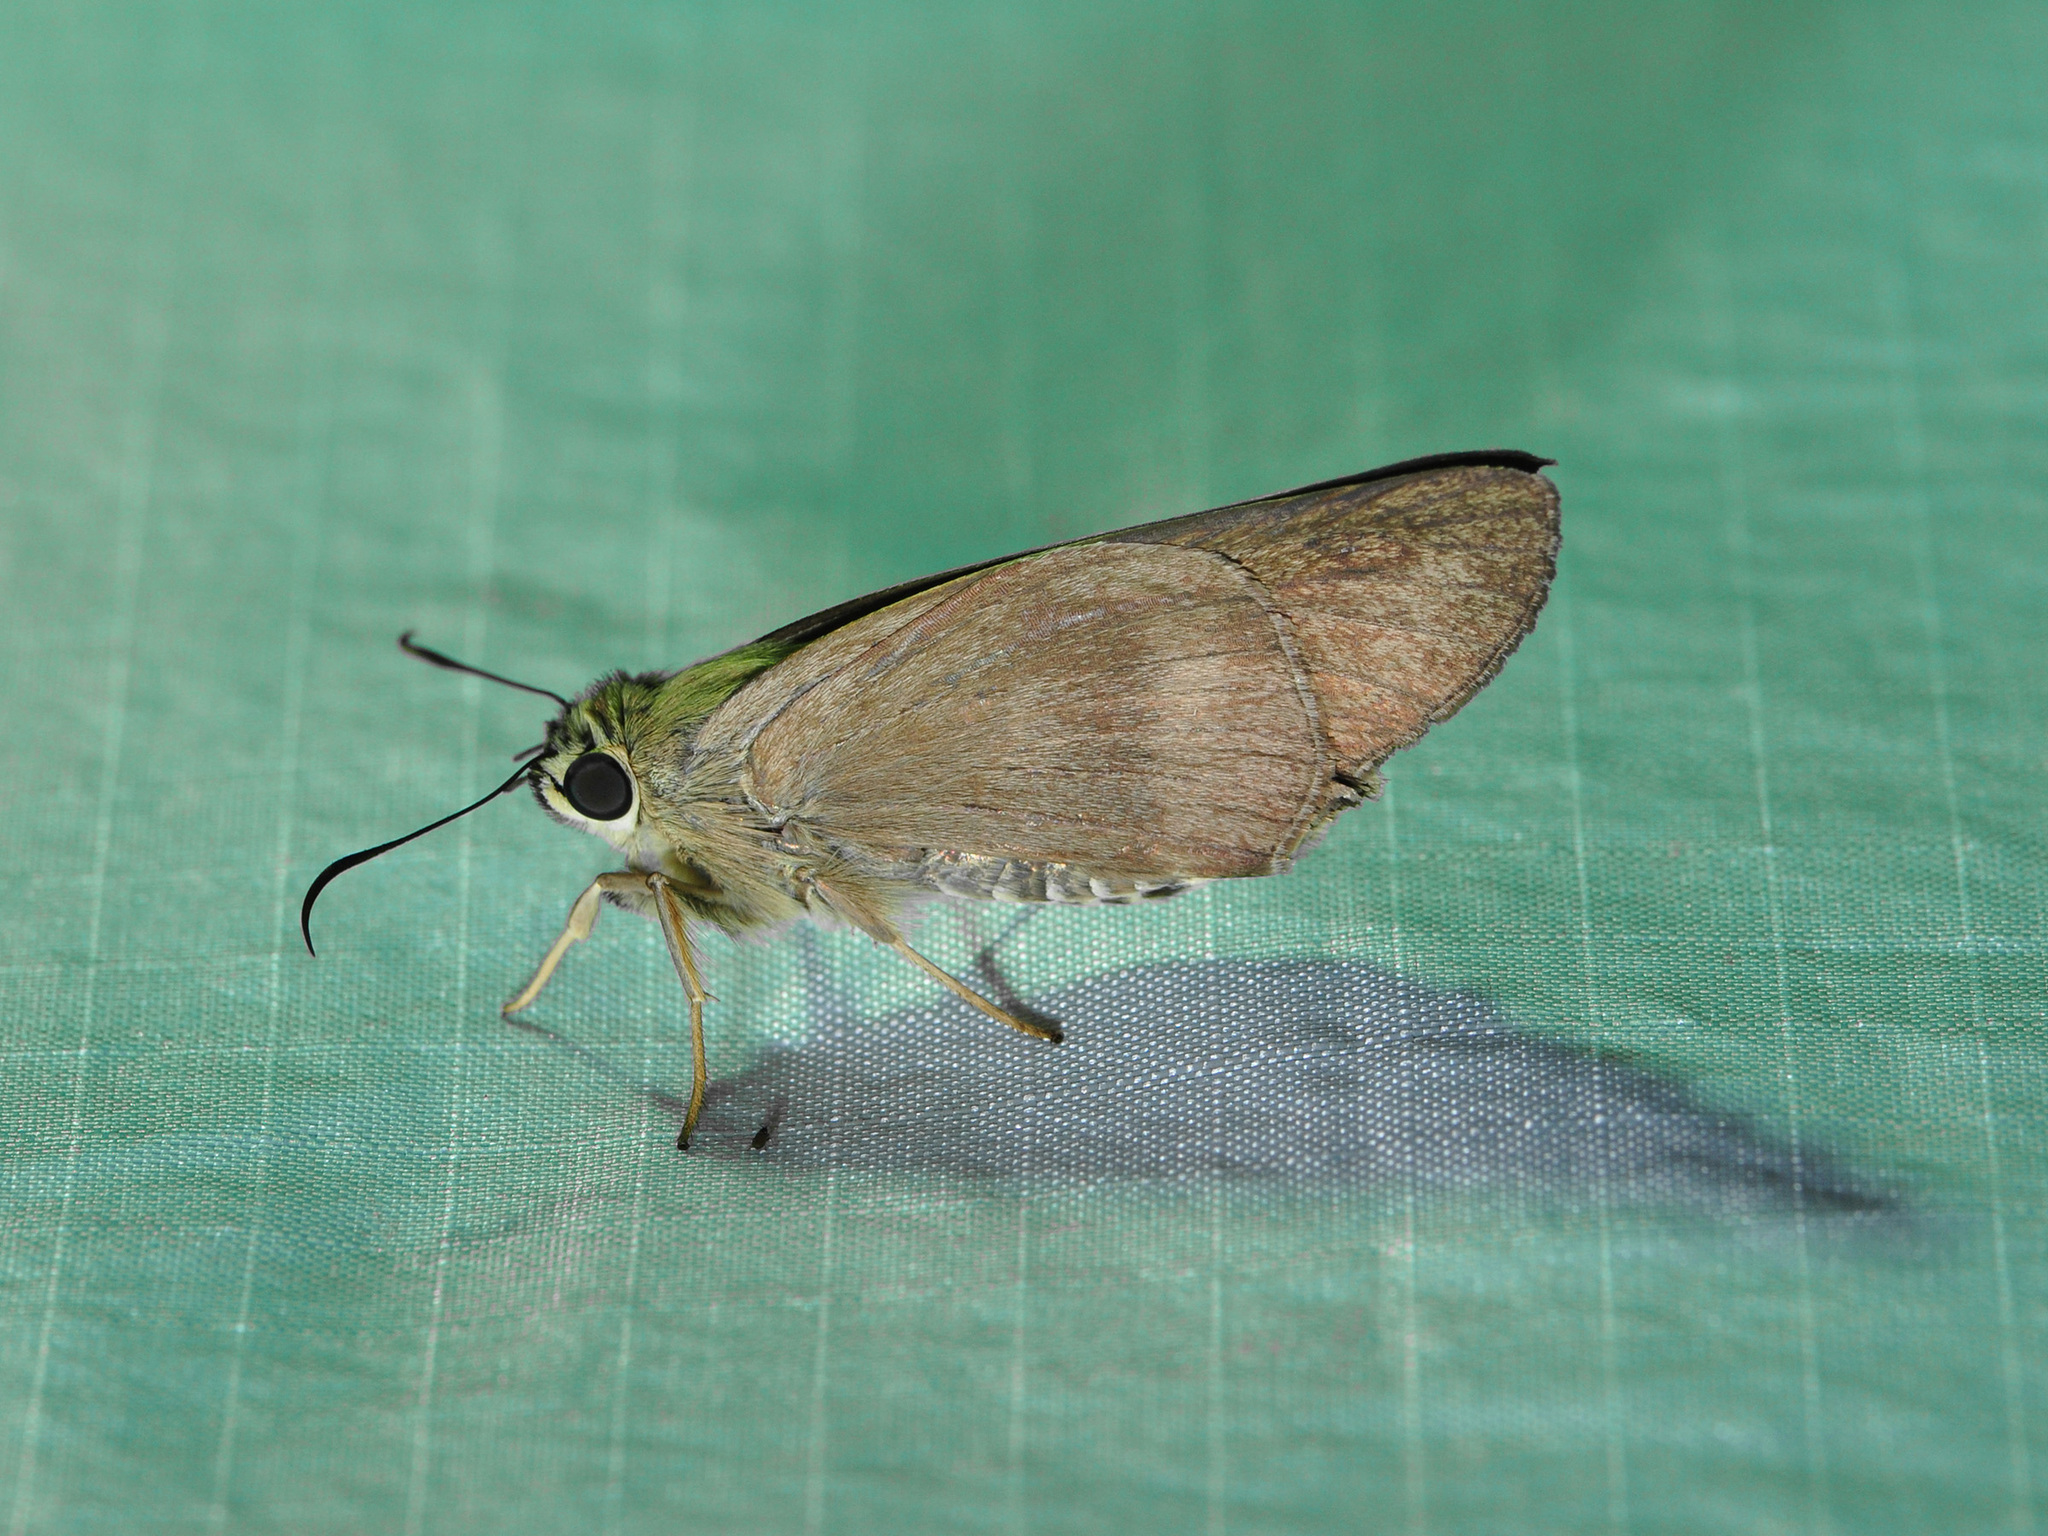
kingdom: Animalia
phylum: Arthropoda
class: Insecta
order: Lepidoptera
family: Hesperiidae
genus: Badamia
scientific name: Badamia exclamationis
